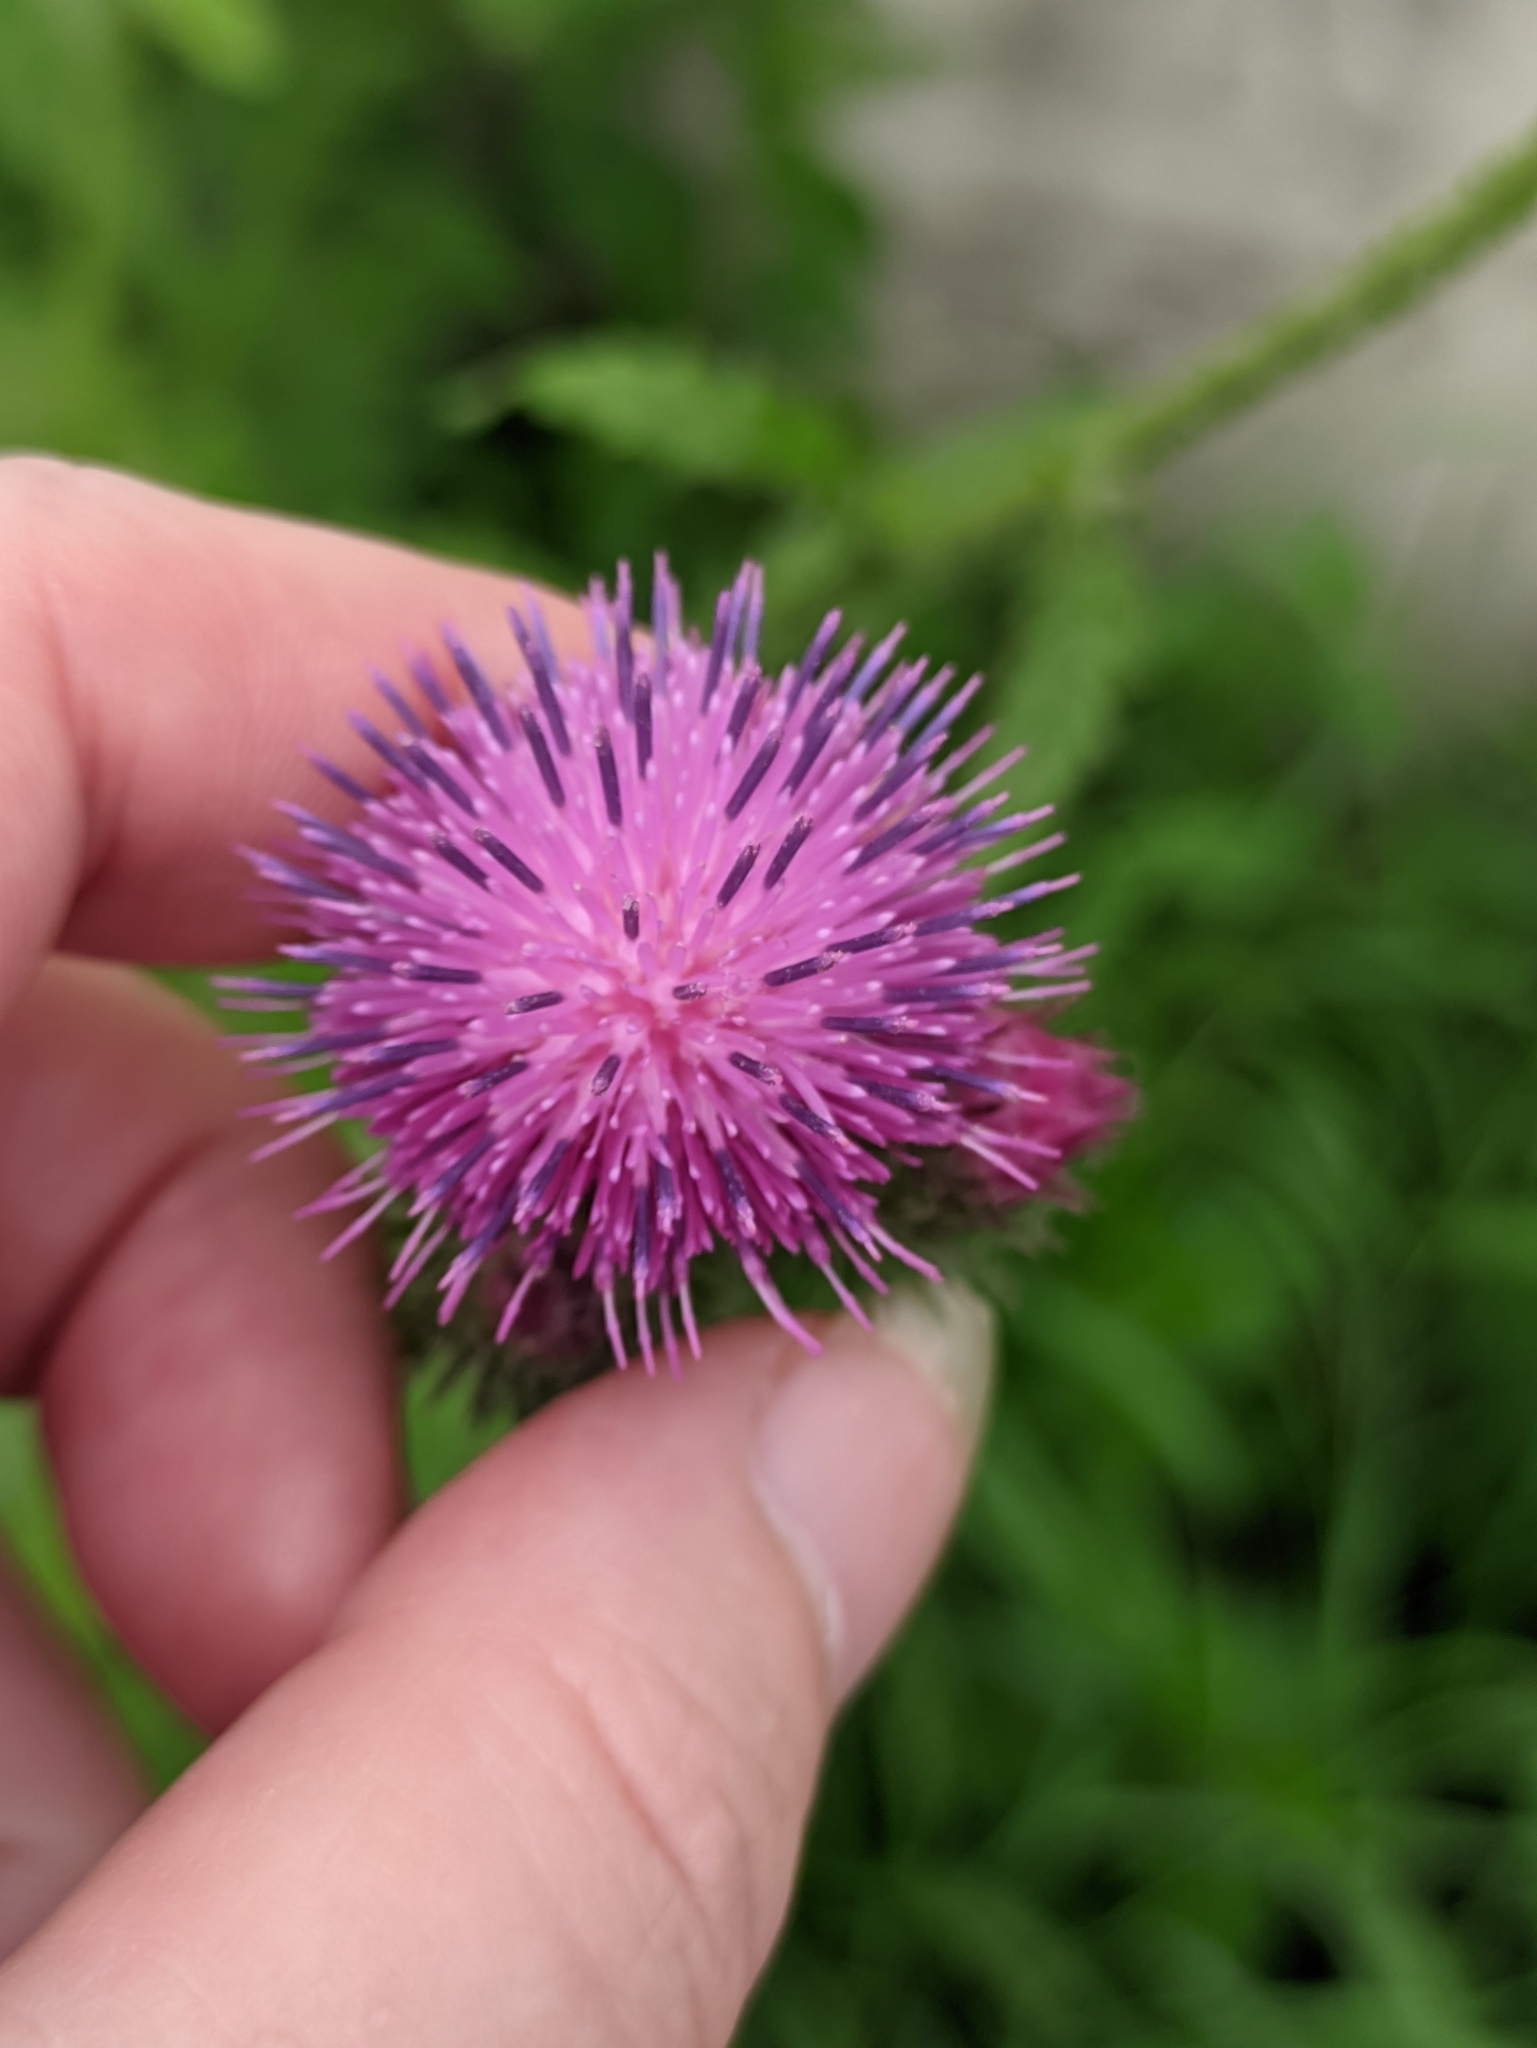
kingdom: Plantae
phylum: Tracheophyta
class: Magnoliopsida
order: Asterales
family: Asteraceae
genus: Carduus
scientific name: Carduus crispus
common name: Welted thistle
